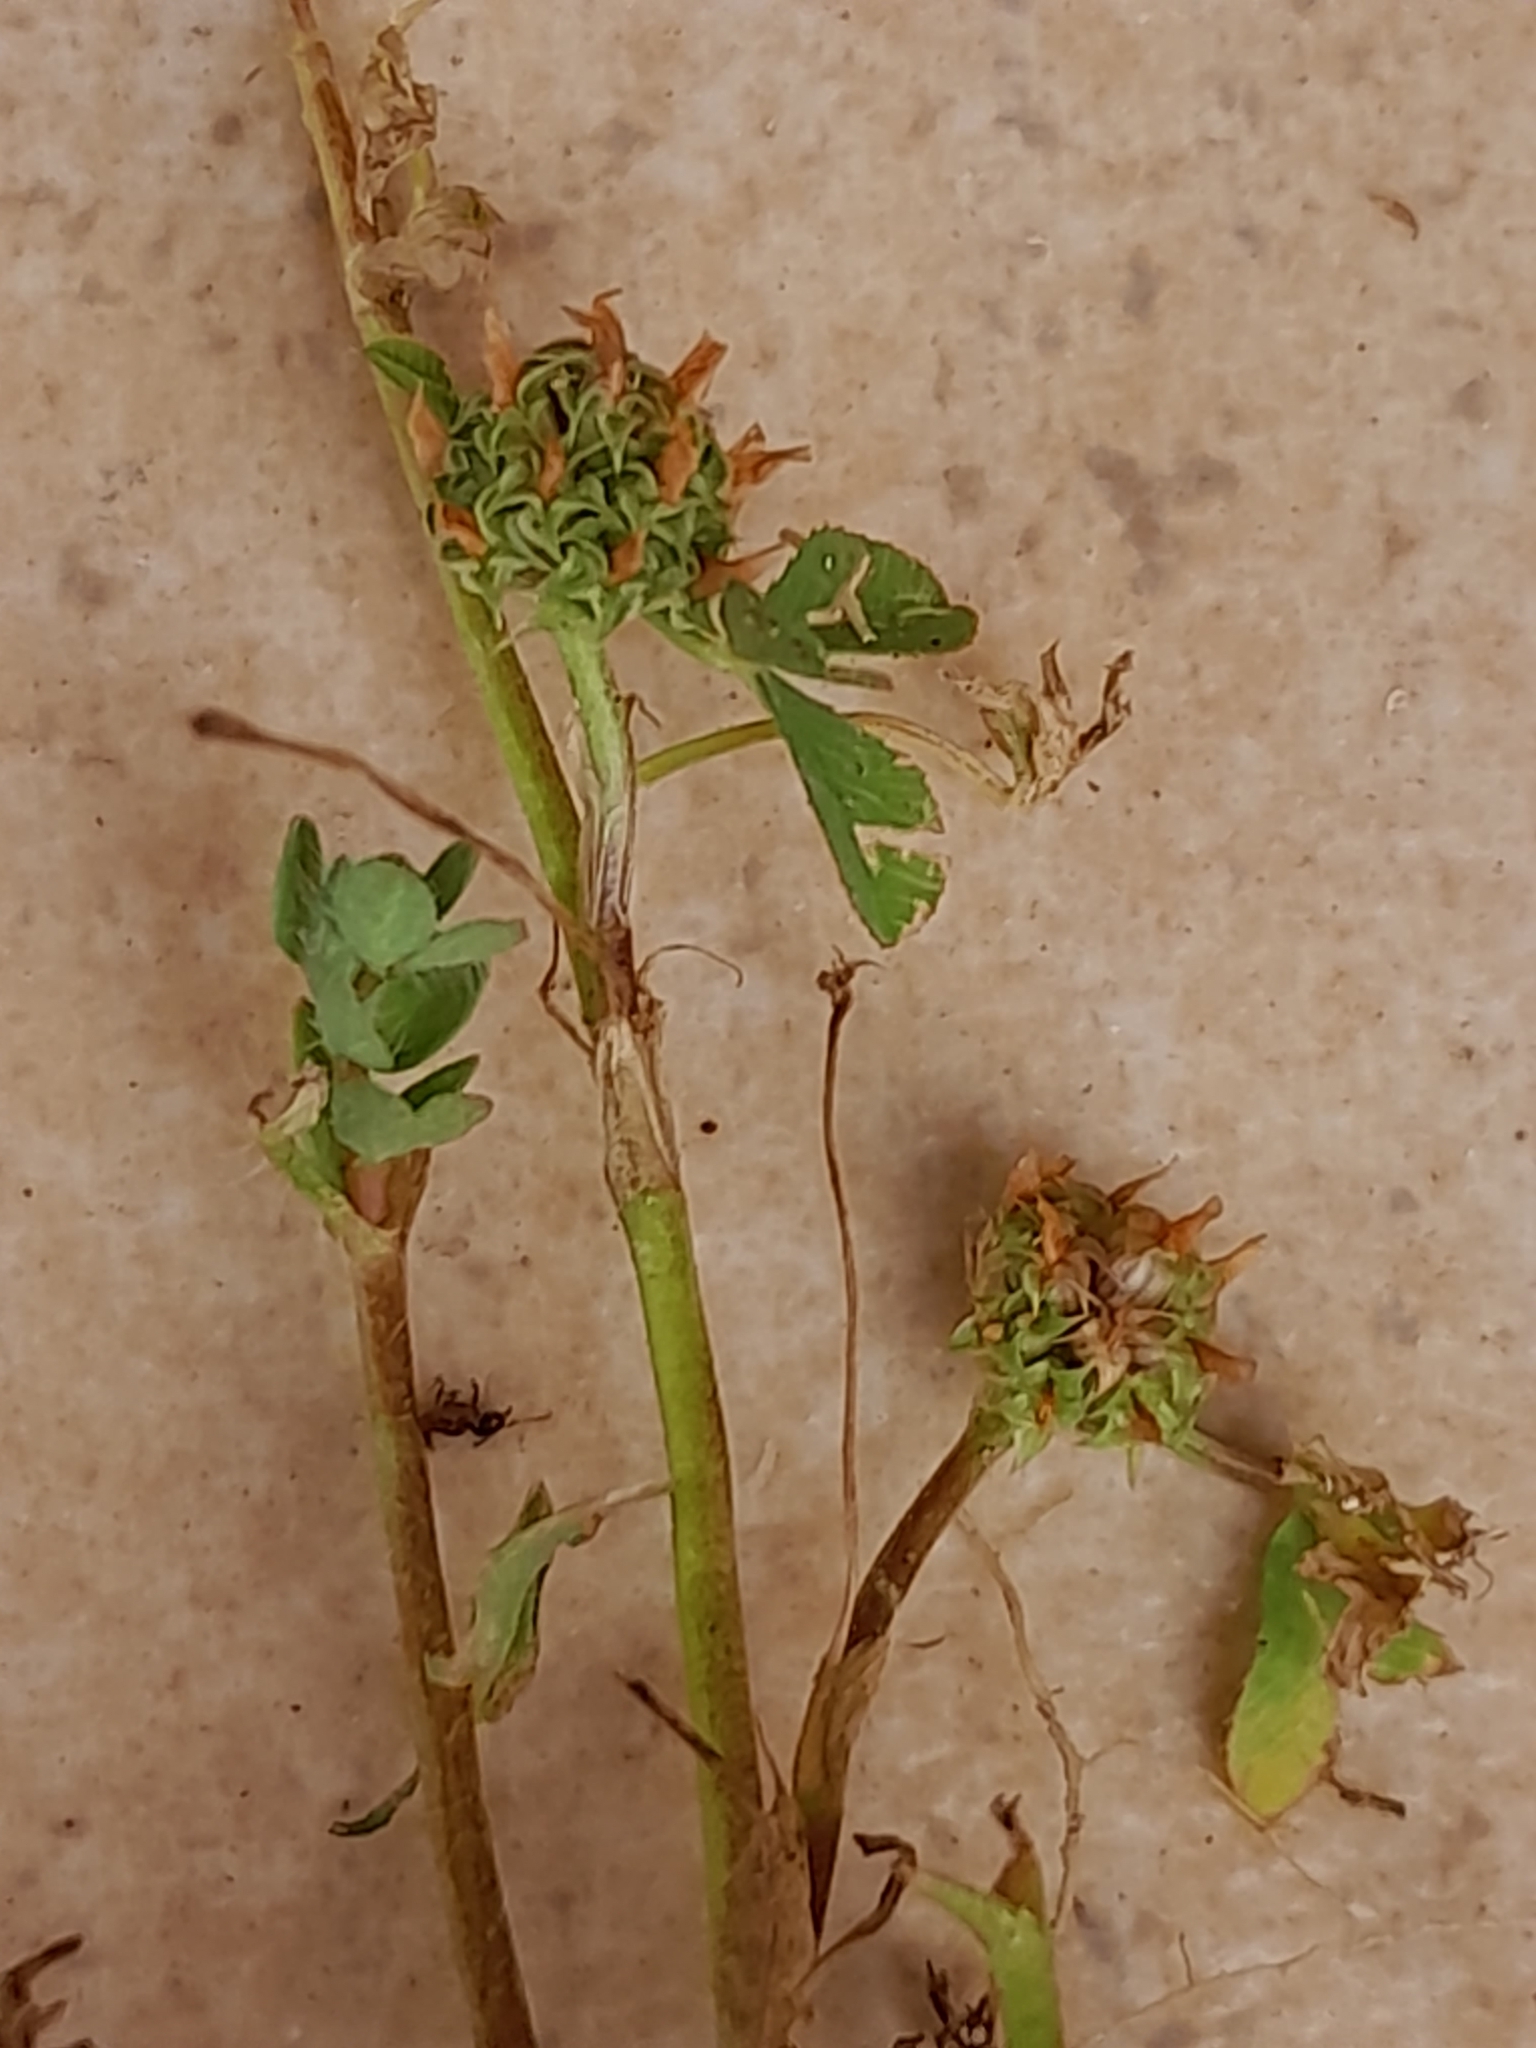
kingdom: Plantae
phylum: Tracheophyta
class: Magnoliopsida
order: Fabales
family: Fabaceae
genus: Trifolium
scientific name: Trifolium glomeratum
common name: Clustered clover
